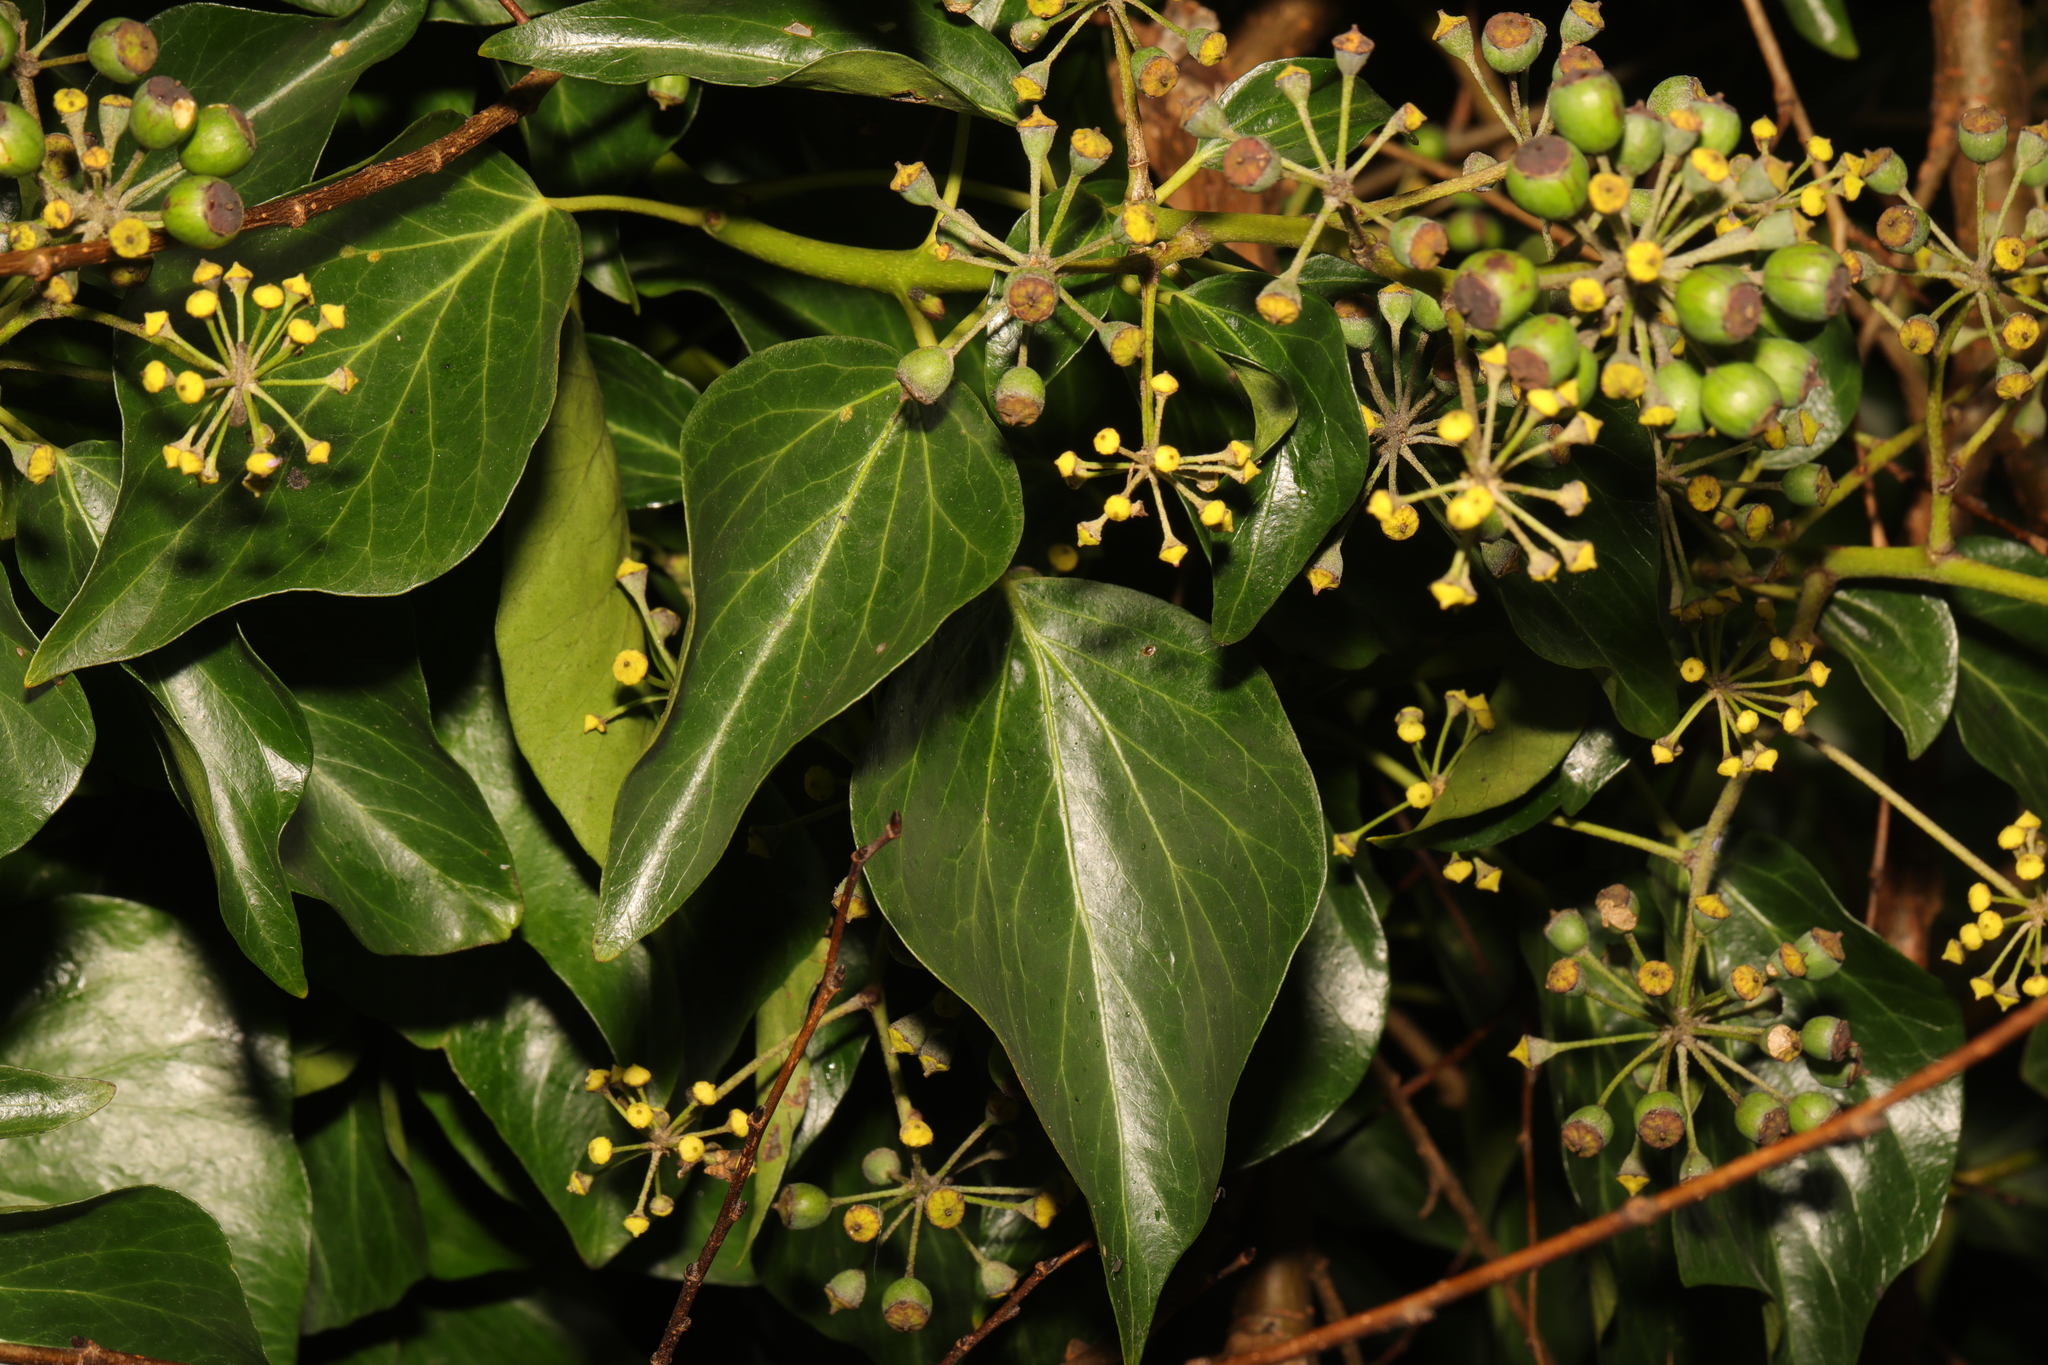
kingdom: Plantae
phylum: Tracheophyta
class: Magnoliopsida
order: Apiales
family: Araliaceae
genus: Hedera
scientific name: Hedera helix
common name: Ivy
